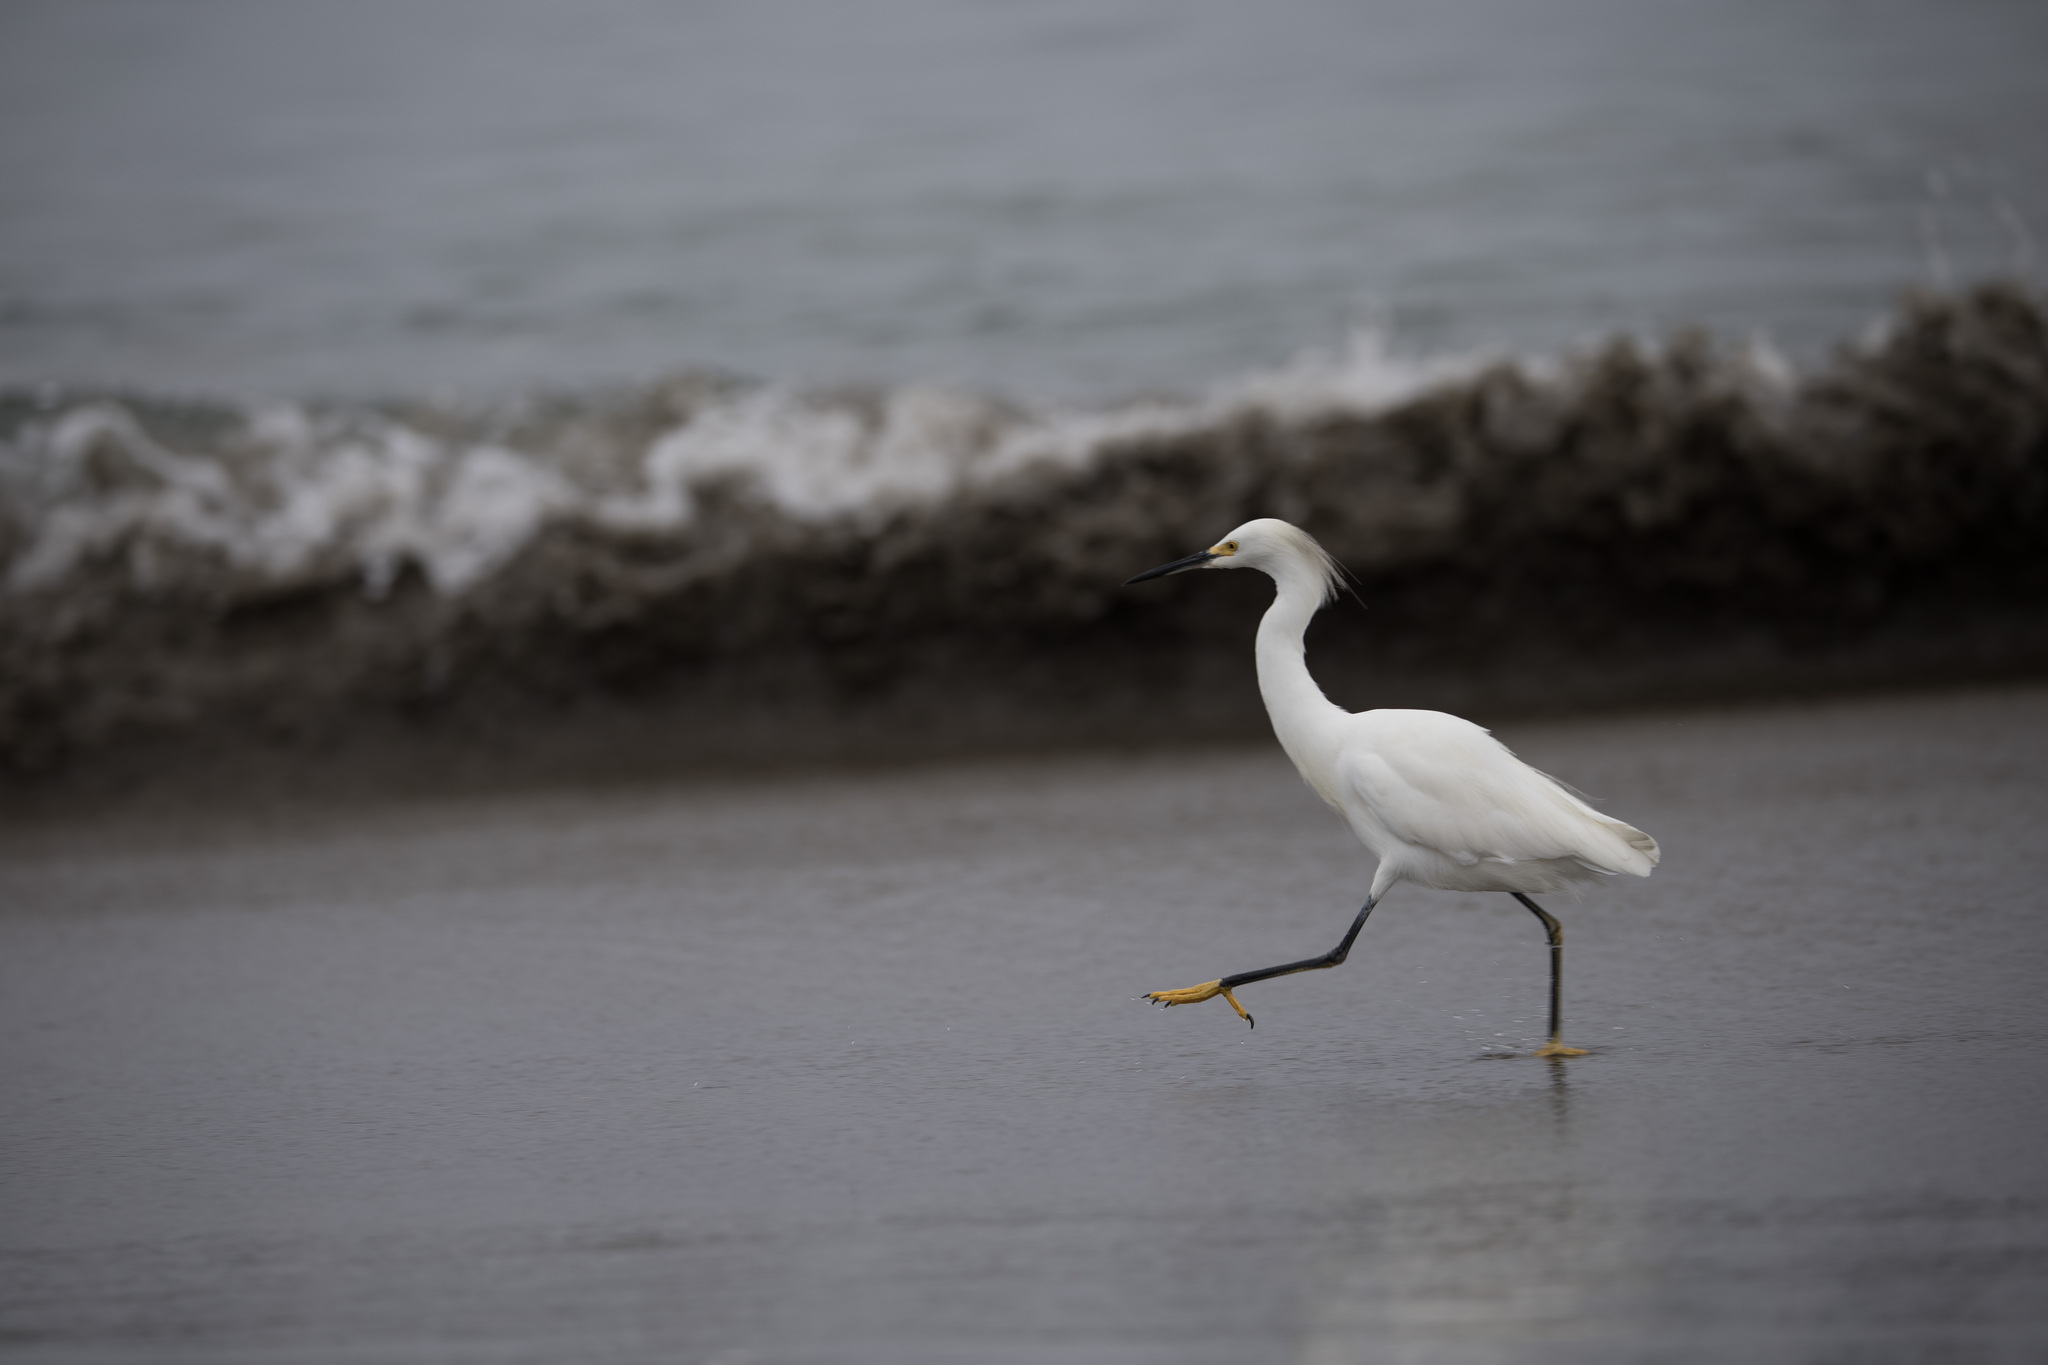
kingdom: Animalia
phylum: Chordata
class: Aves
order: Pelecaniformes
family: Ardeidae
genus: Egretta
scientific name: Egretta thula
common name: Snowy egret
